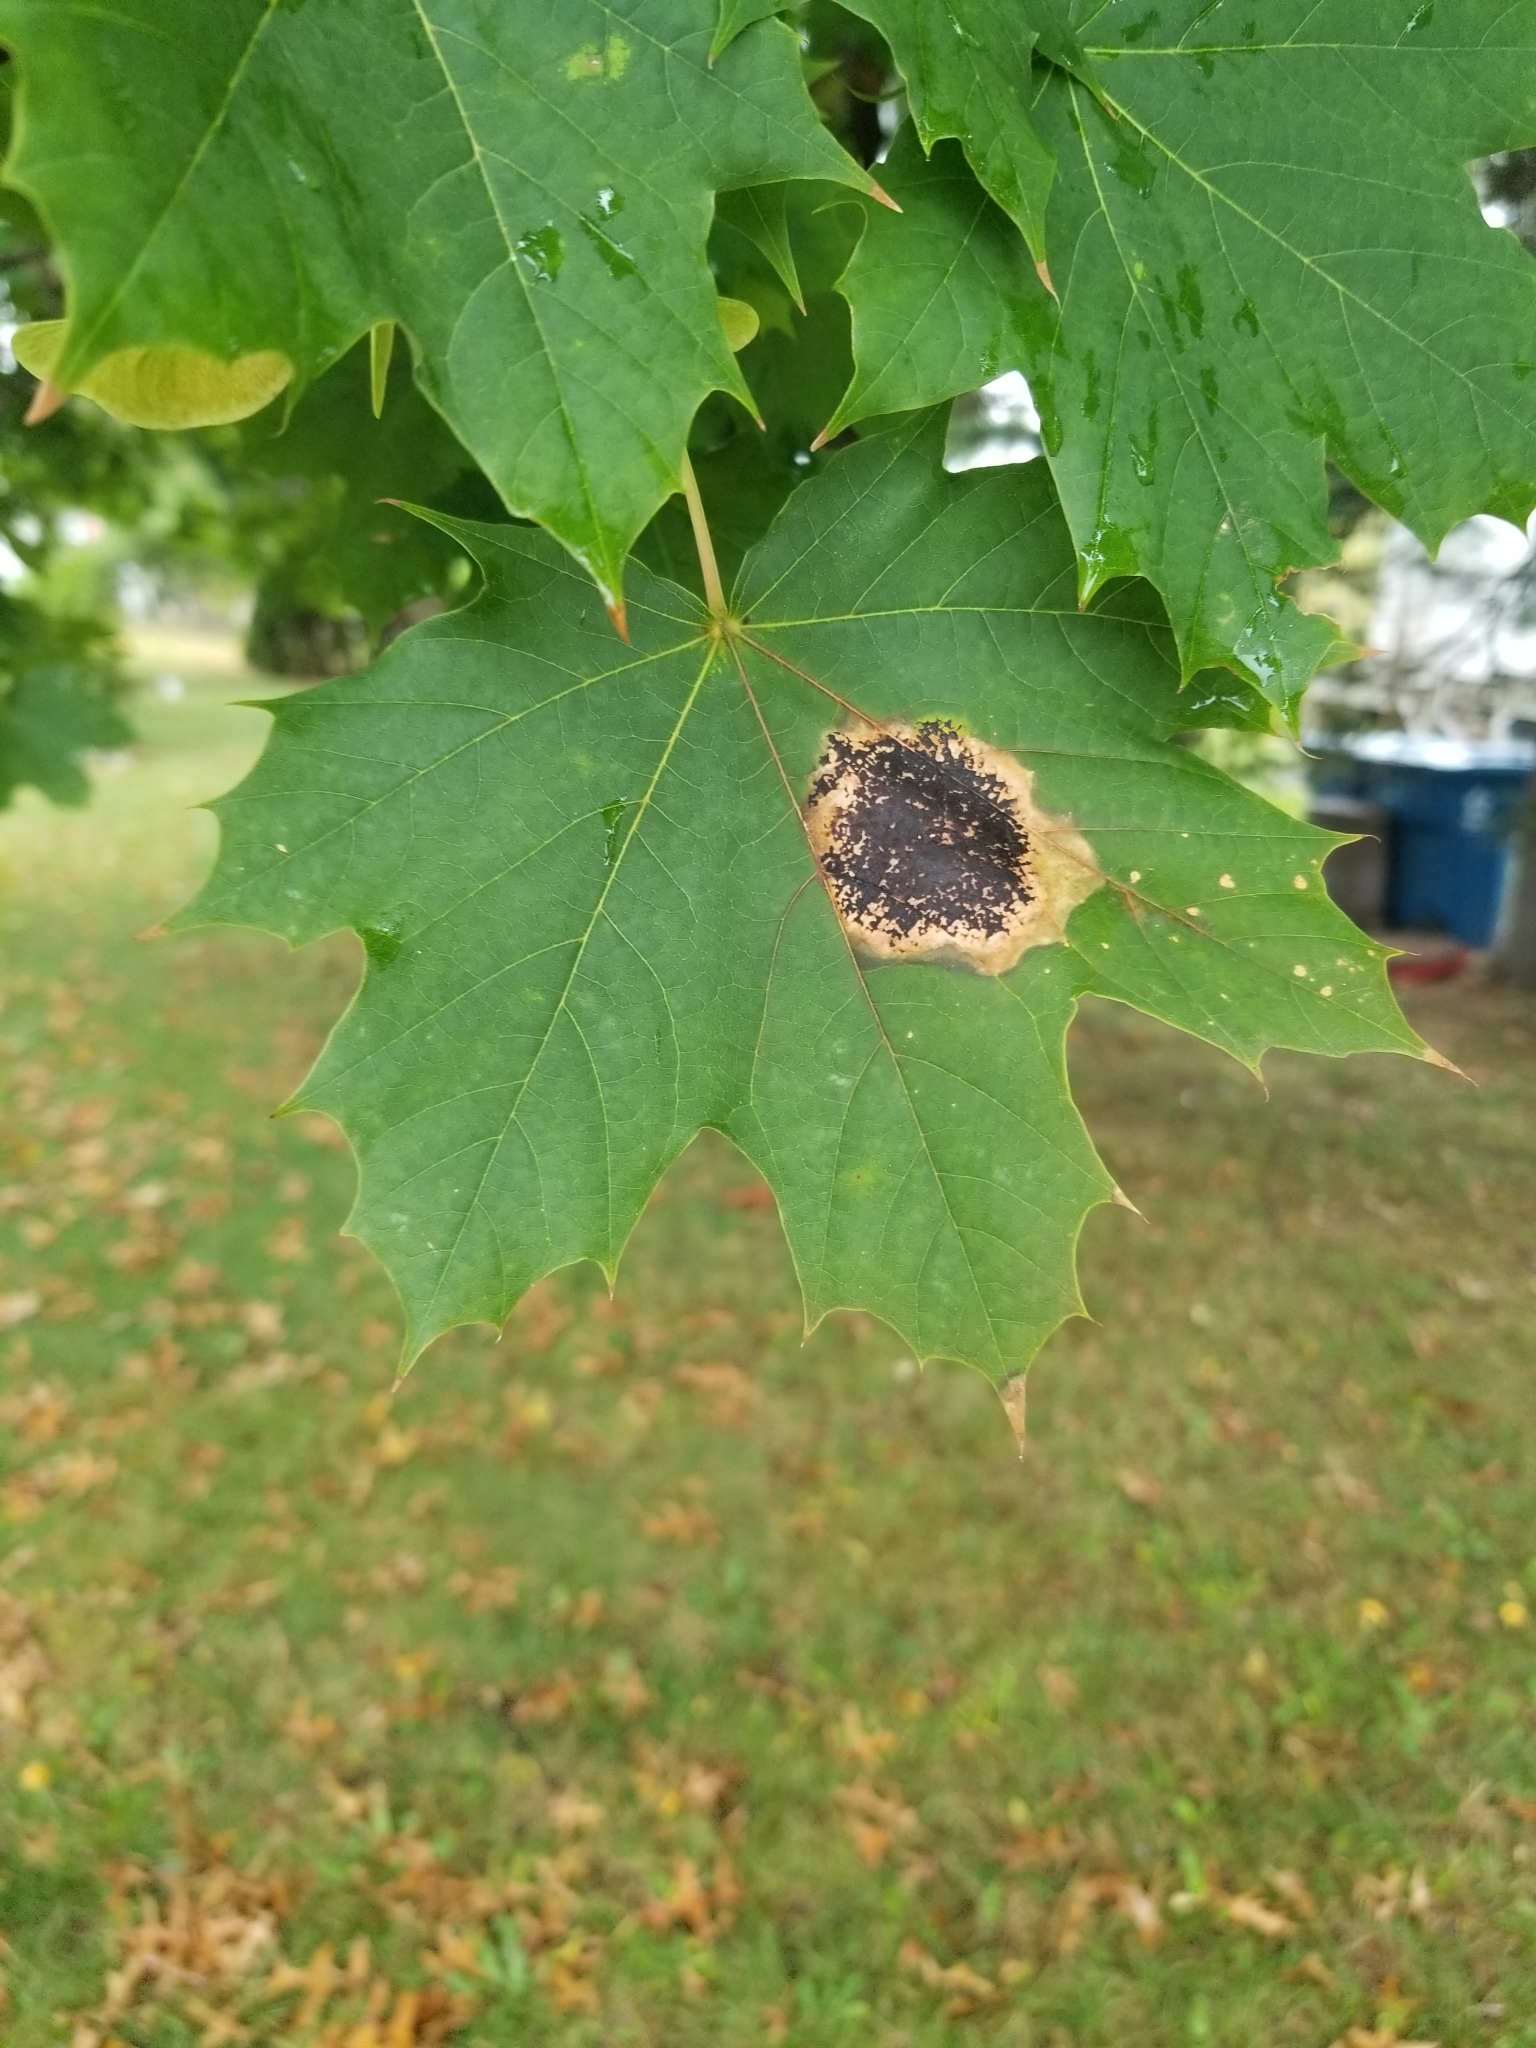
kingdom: Fungi
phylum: Ascomycota
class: Leotiomycetes
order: Rhytismatales
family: Rhytismataceae
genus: Rhytisma
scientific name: Rhytisma acerinum
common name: European tar spot
